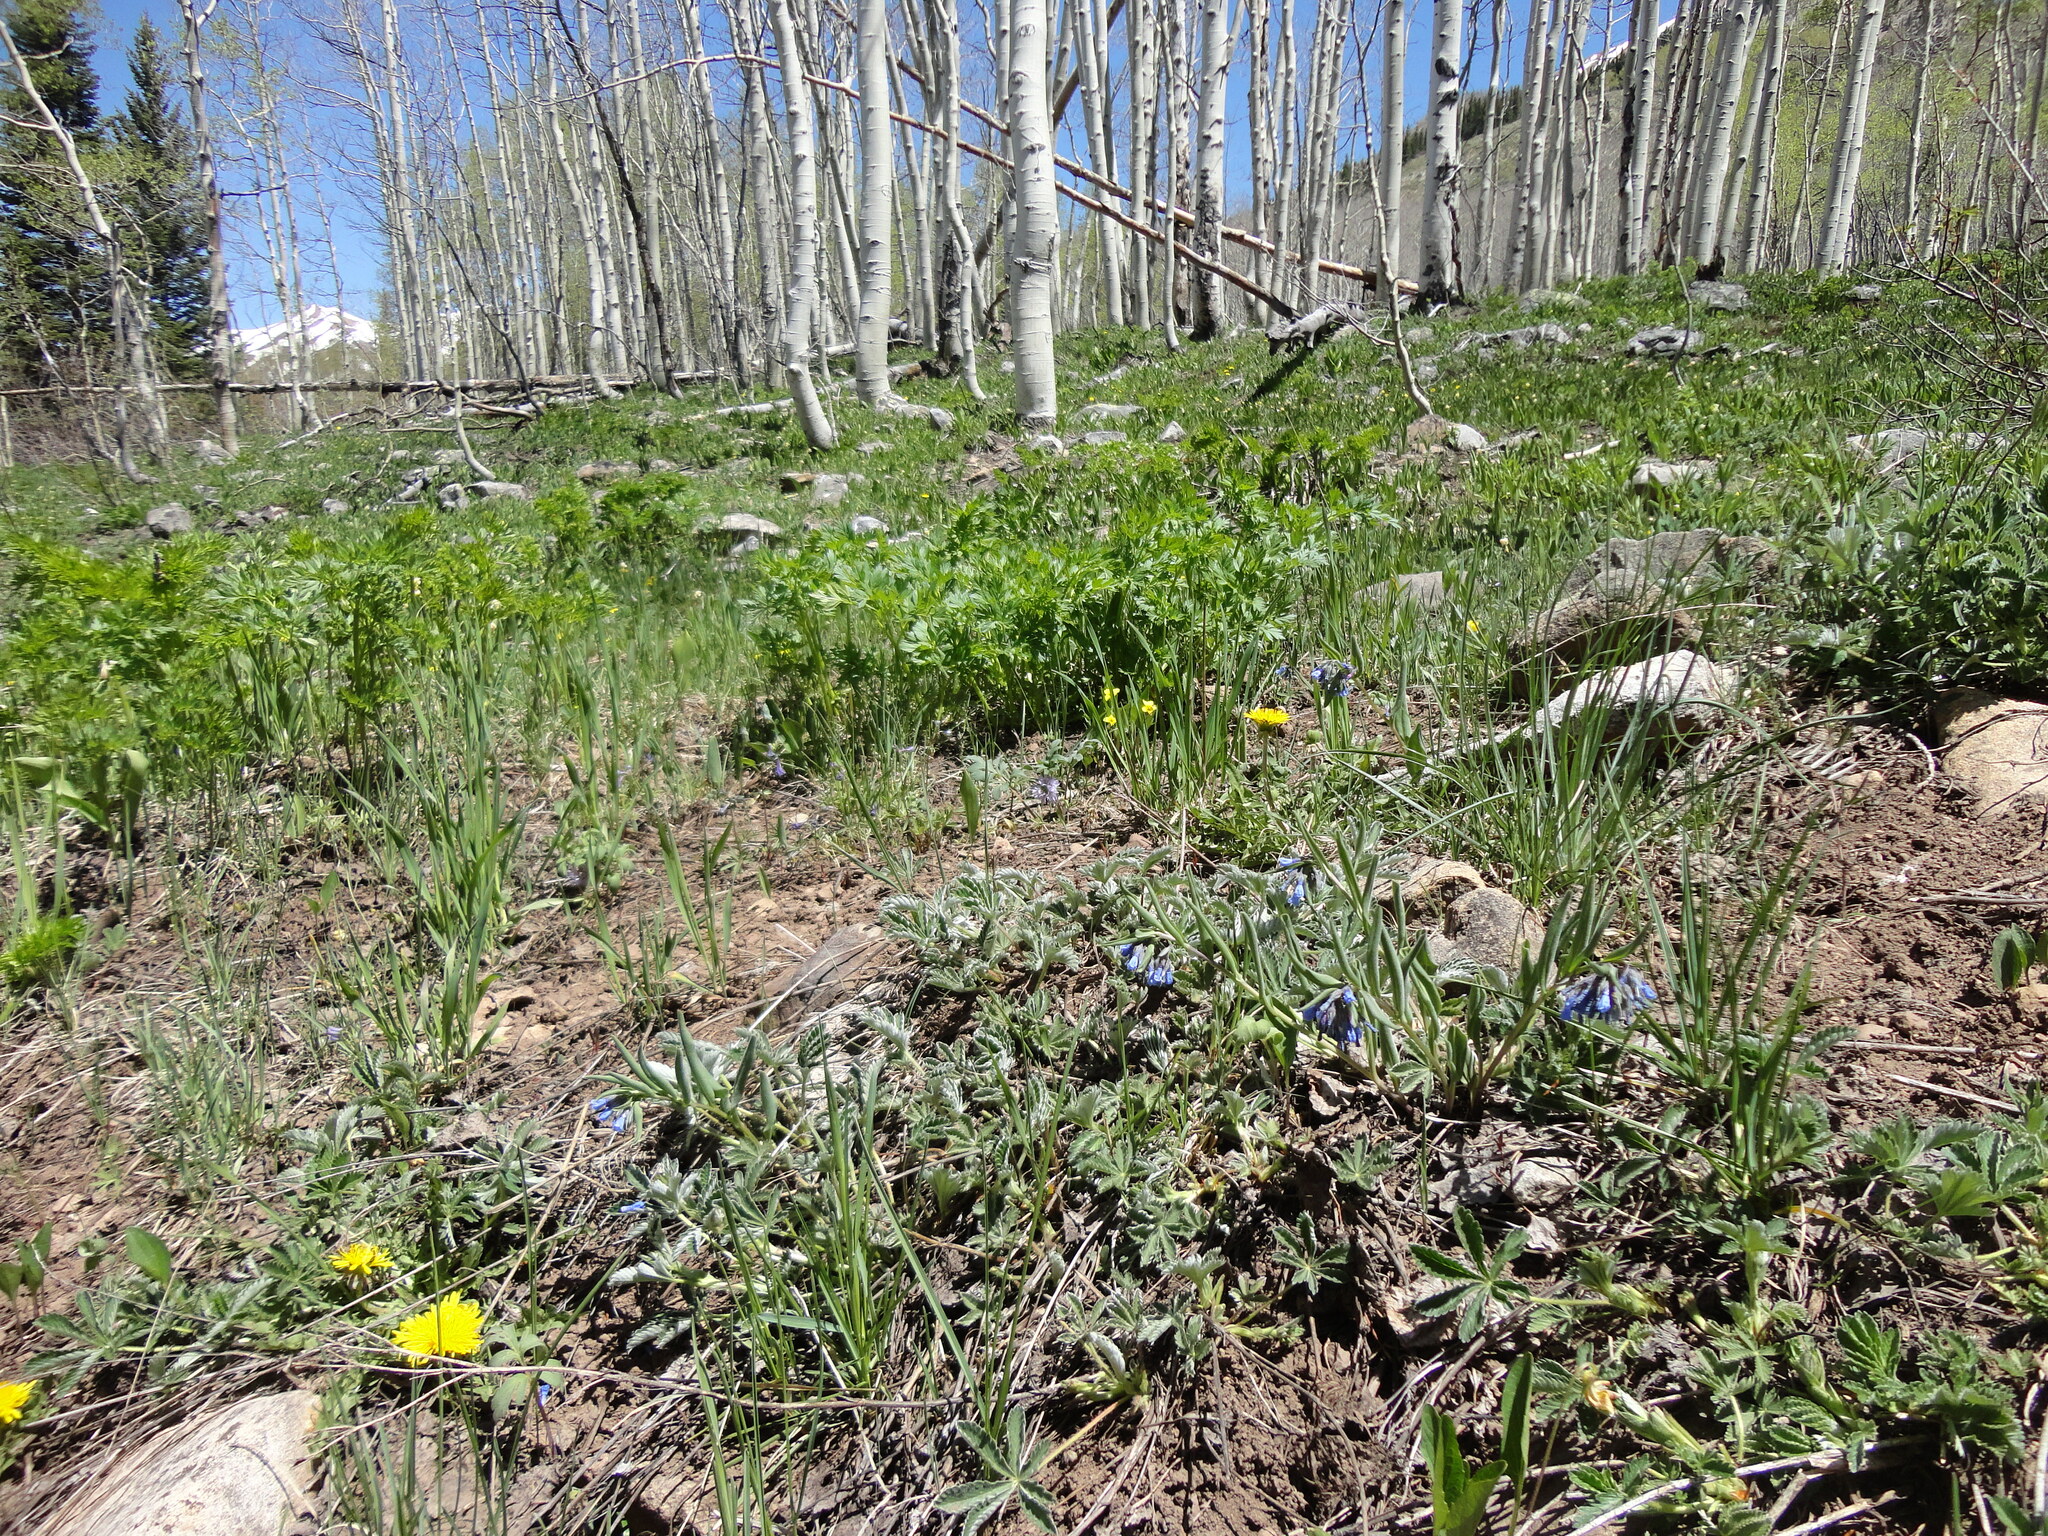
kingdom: Plantae
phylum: Tracheophyta
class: Magnoliopsida
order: Boraginales
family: Boraginaceae
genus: Mertensia
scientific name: Mertensia brevistyla
